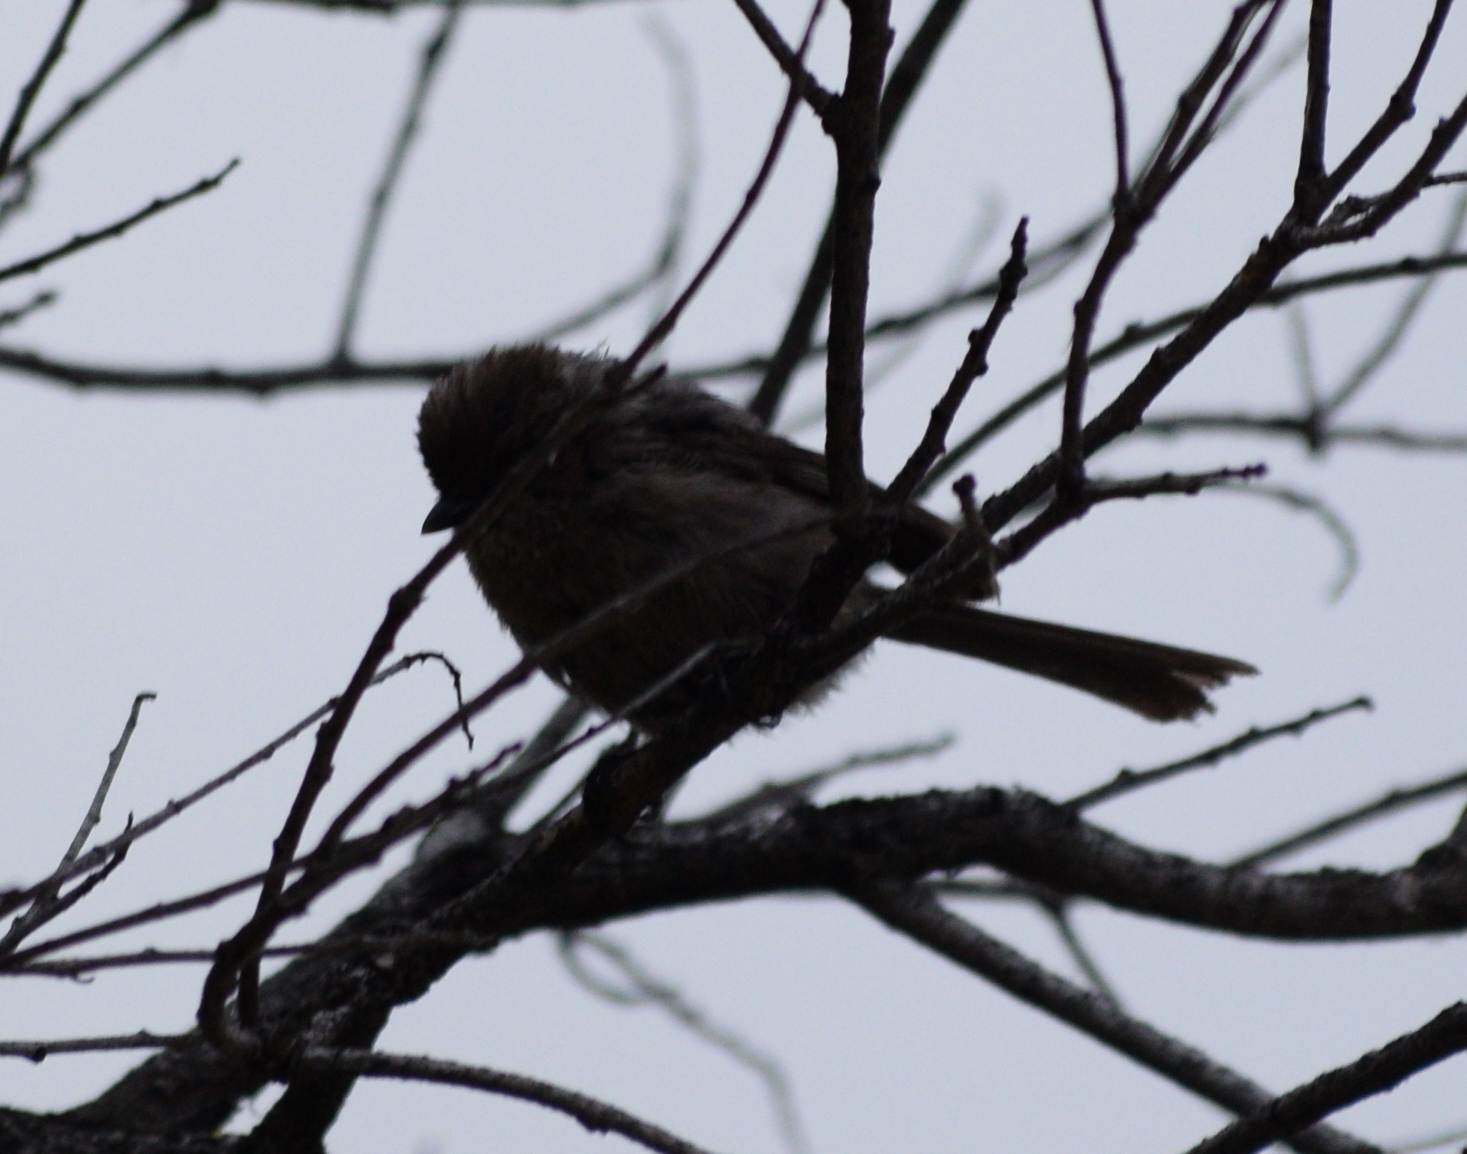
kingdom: Animalia
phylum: Chordata
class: Aves
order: Passeriformes
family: Aegithalidae
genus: Psaltriparus
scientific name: Psaltriparus minimus
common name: American bushtit
